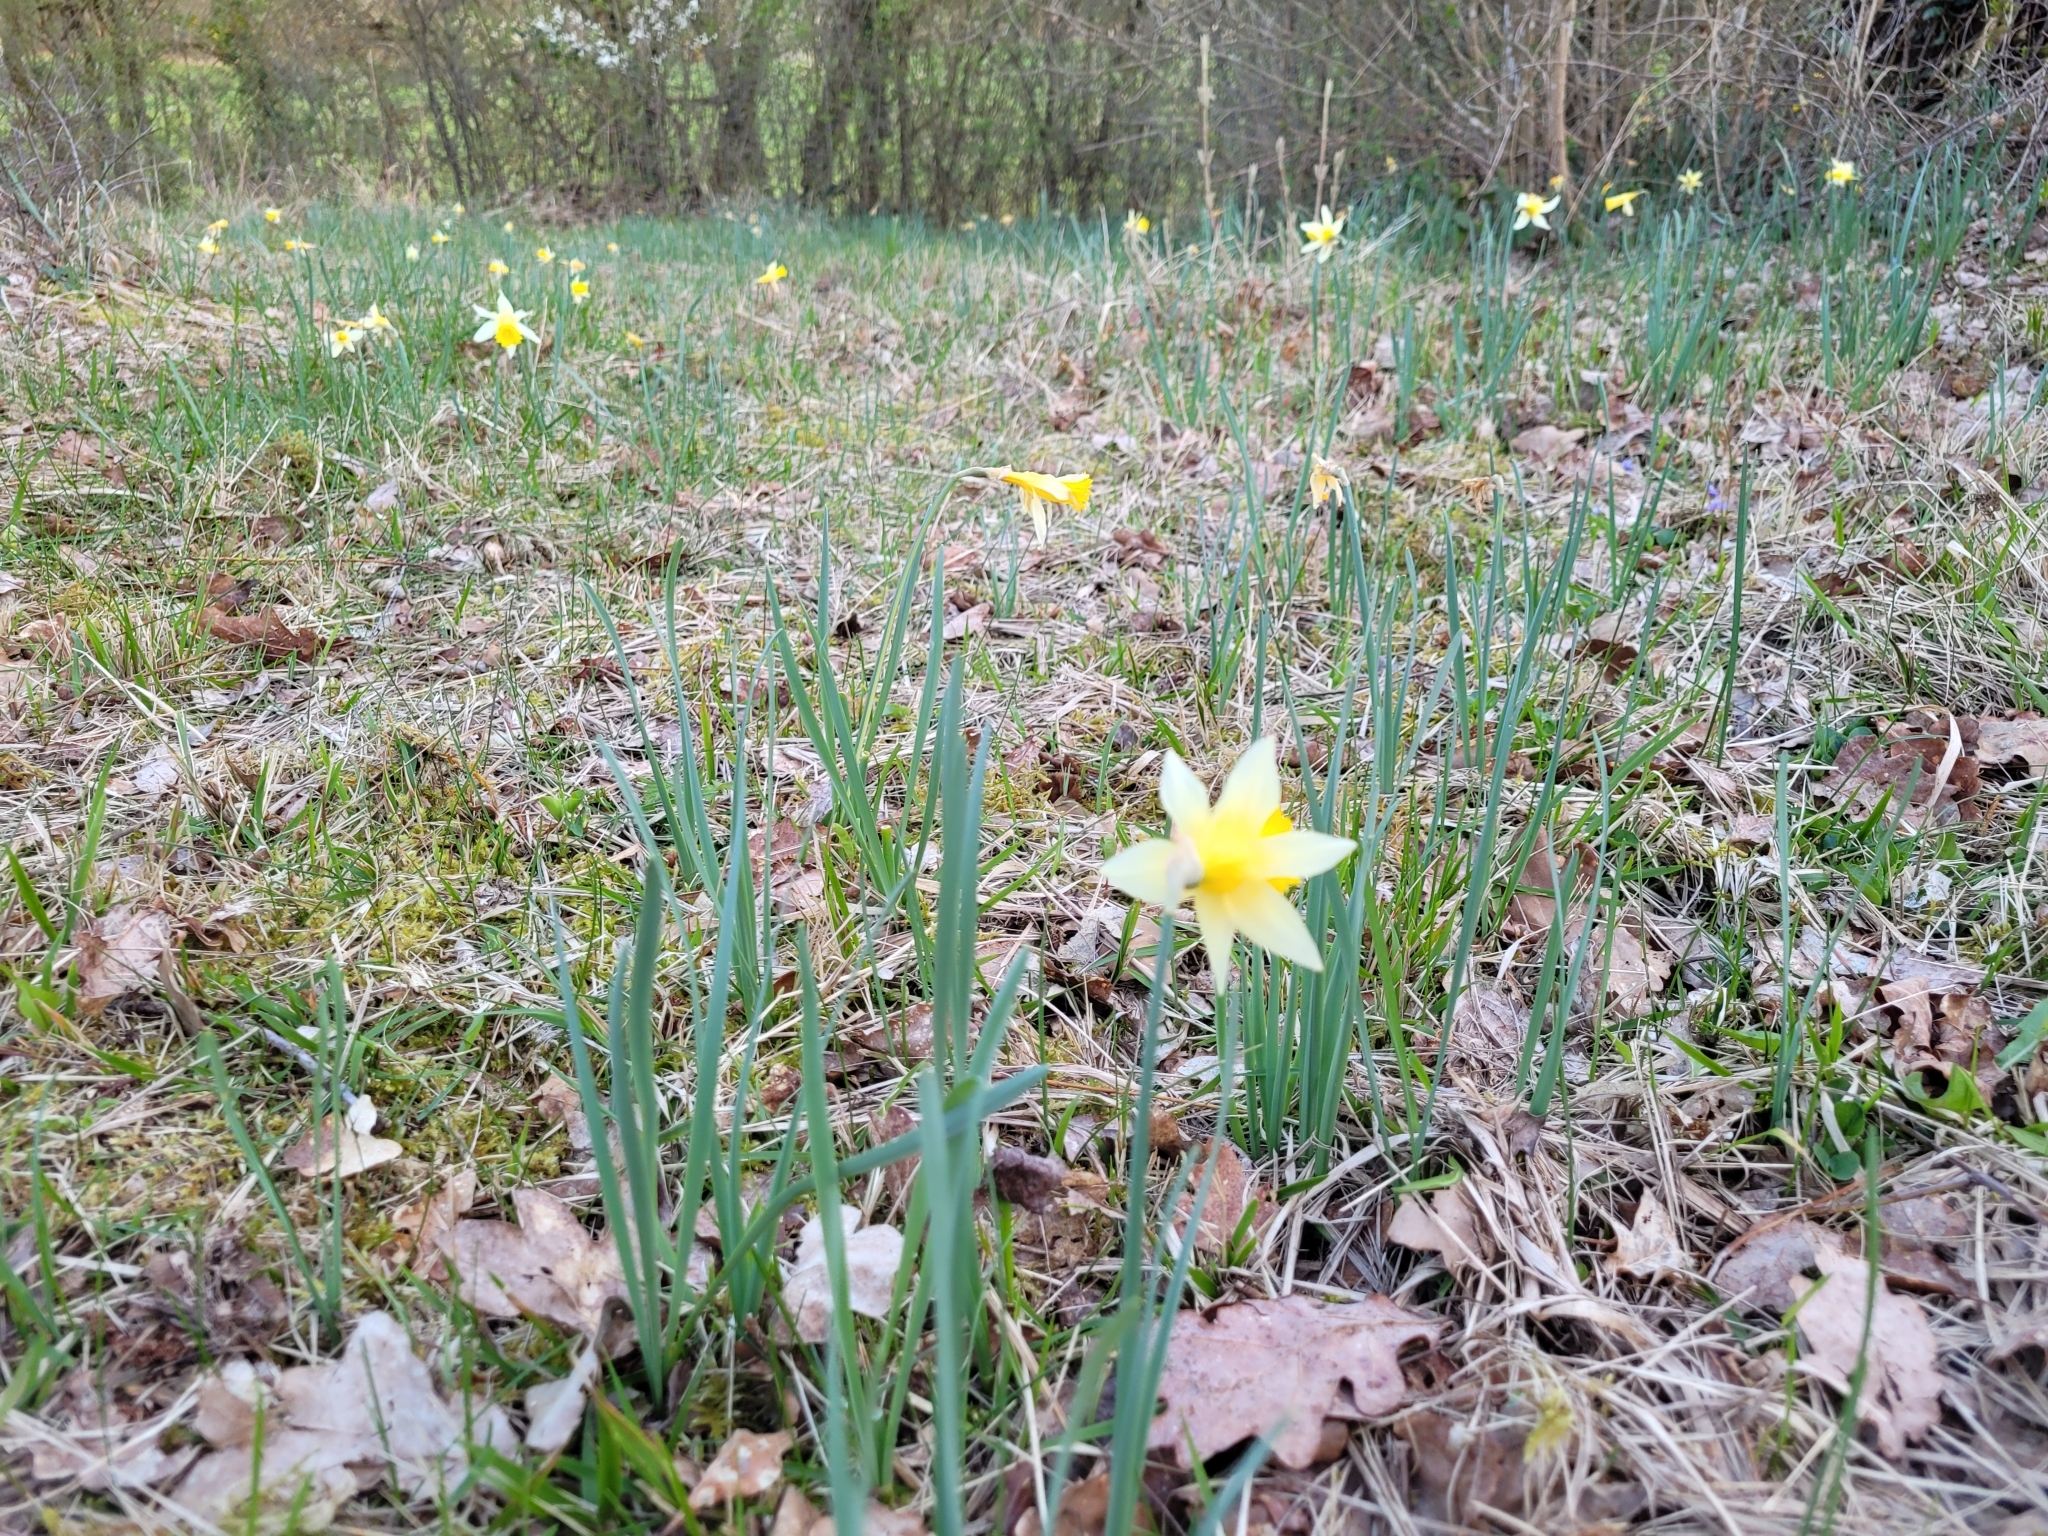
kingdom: Plantae
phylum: Tracheophyta
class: Liliopsida
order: Asparagales
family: Amaryllidaceae
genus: Narcissus
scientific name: Narcissus pseudonarcissus
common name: Daffodil
